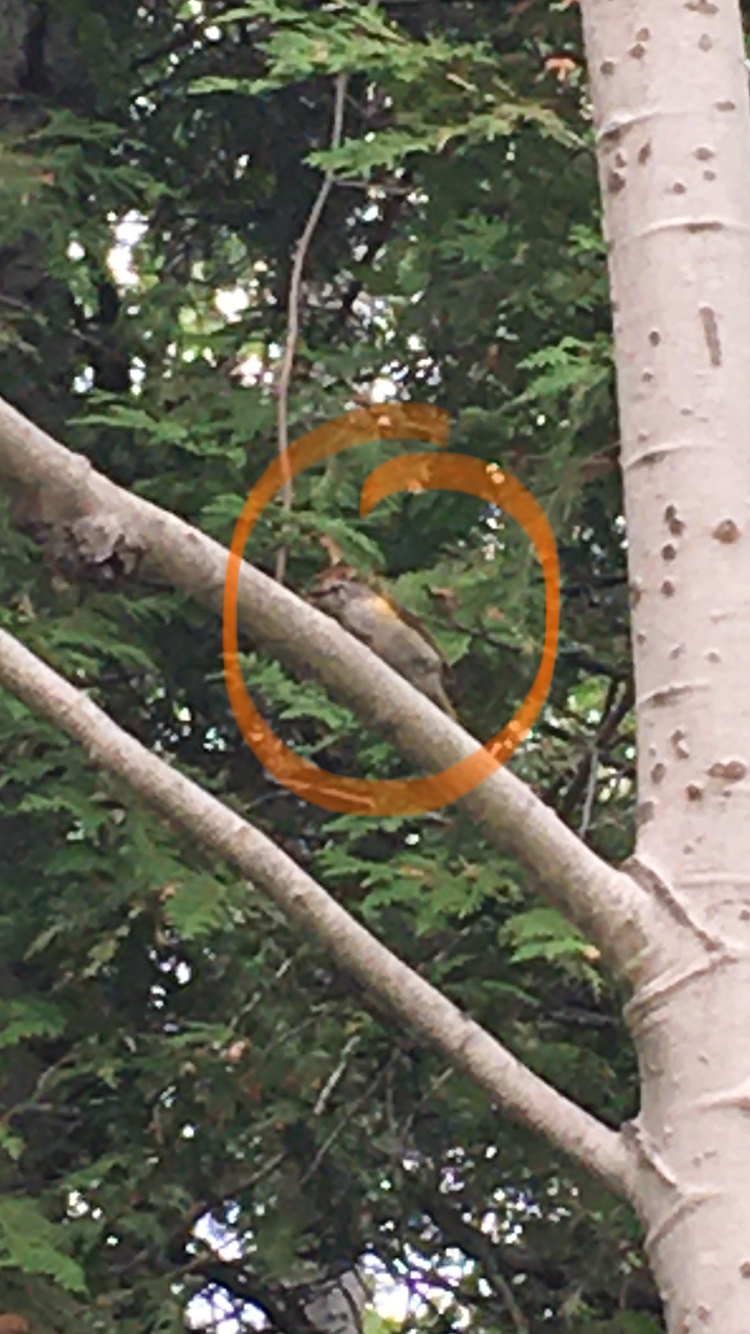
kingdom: Animalia
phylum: Chordata
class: Aves
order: Passeriformes
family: Parulidae
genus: Setophaga
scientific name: Setophaga ruticilla
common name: American redstart
